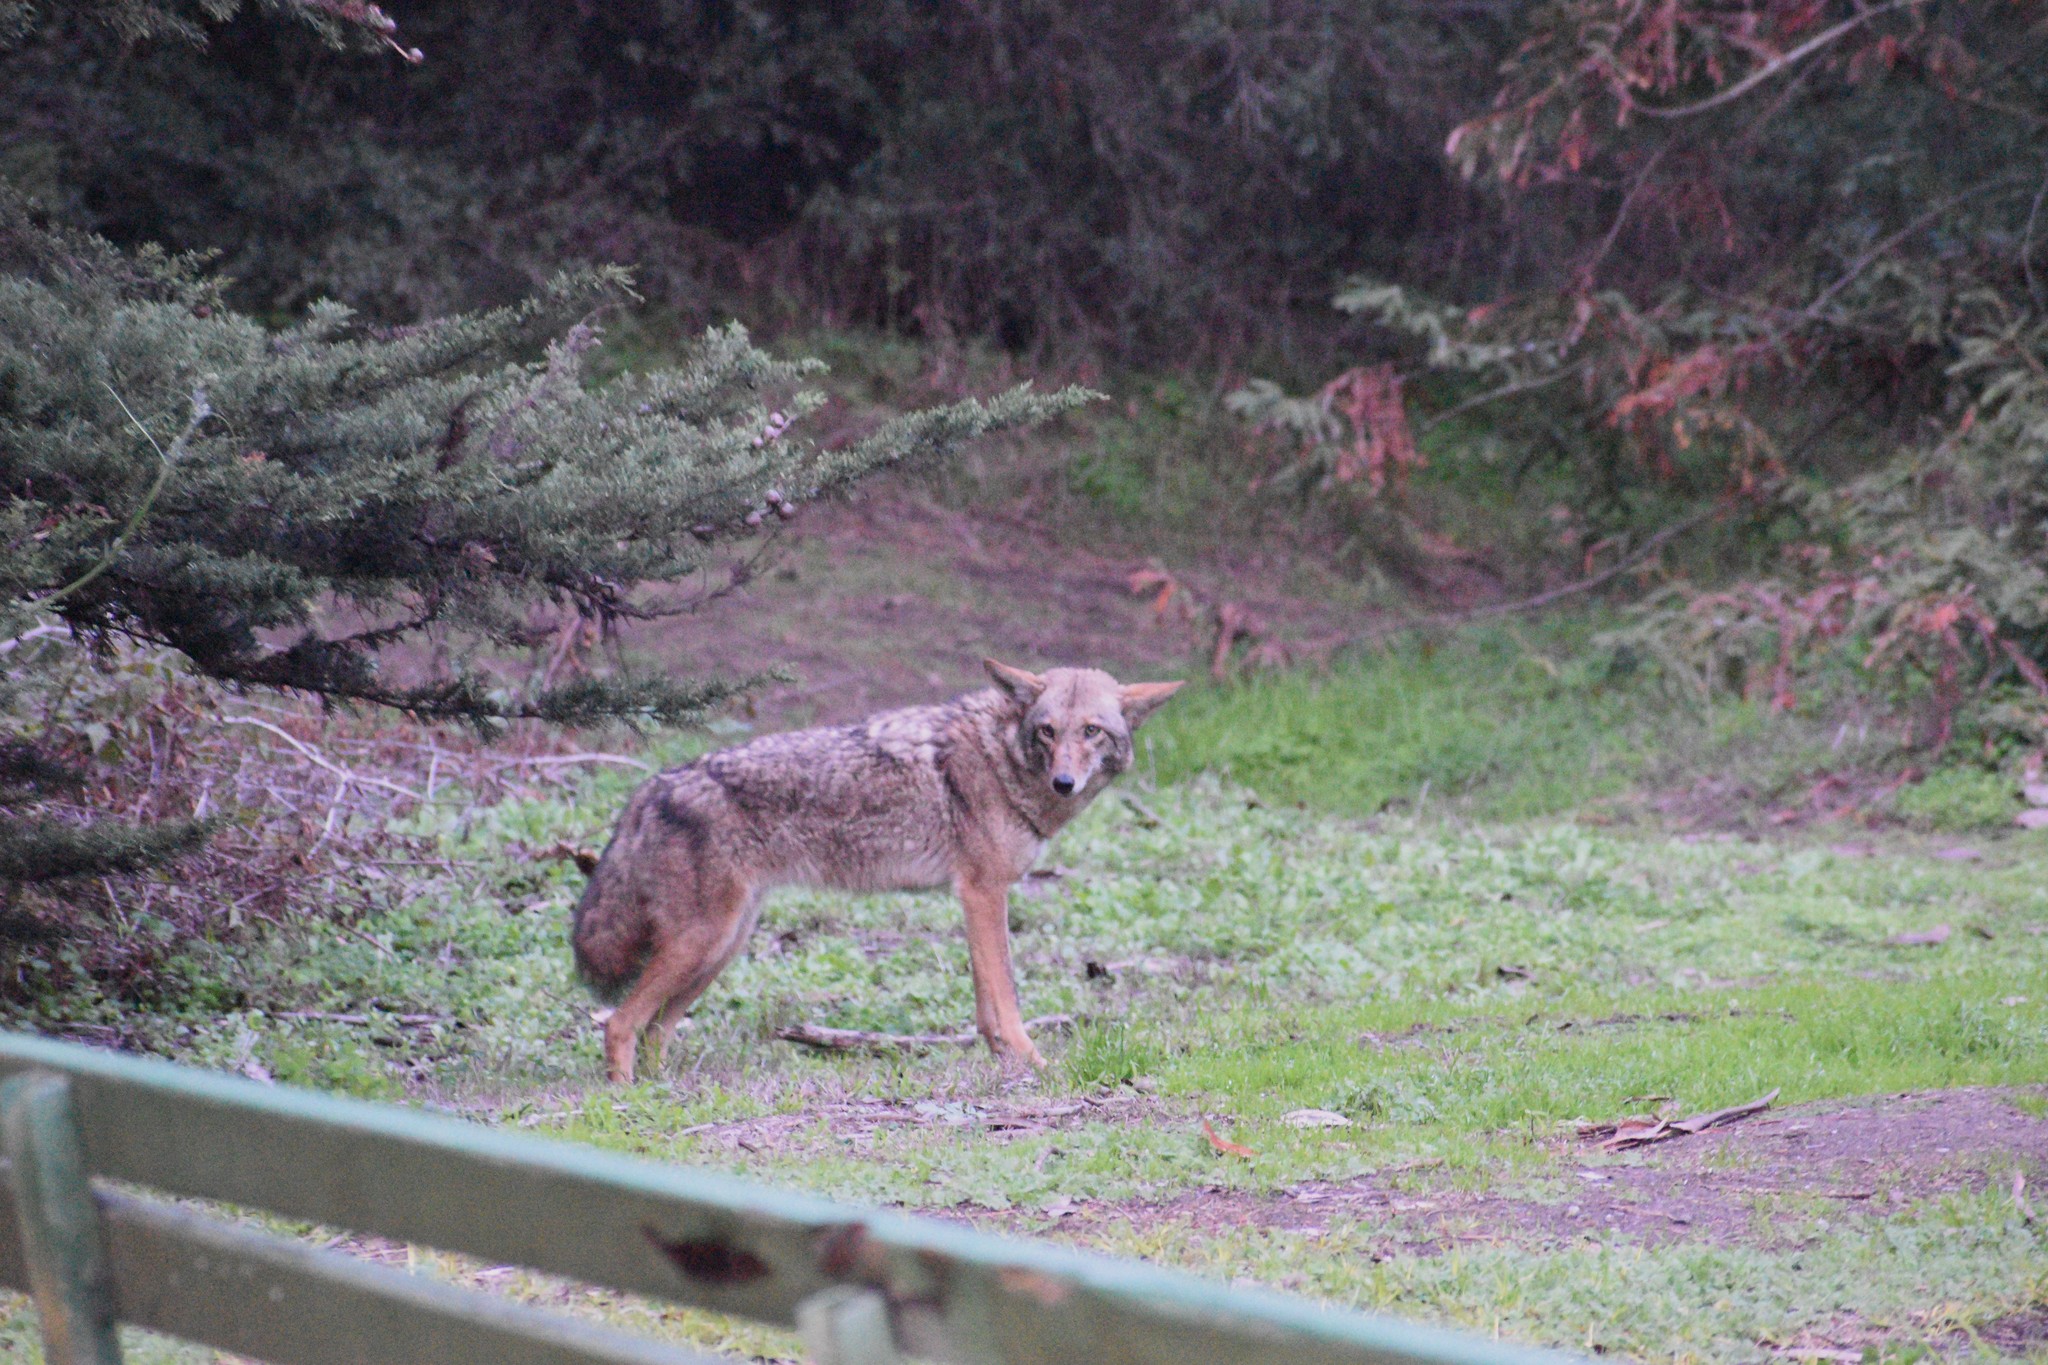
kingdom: Animalia
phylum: Chordata
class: Mammalia
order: Carnivora
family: Canidae
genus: Canis
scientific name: Canis latrans
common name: Coyote
